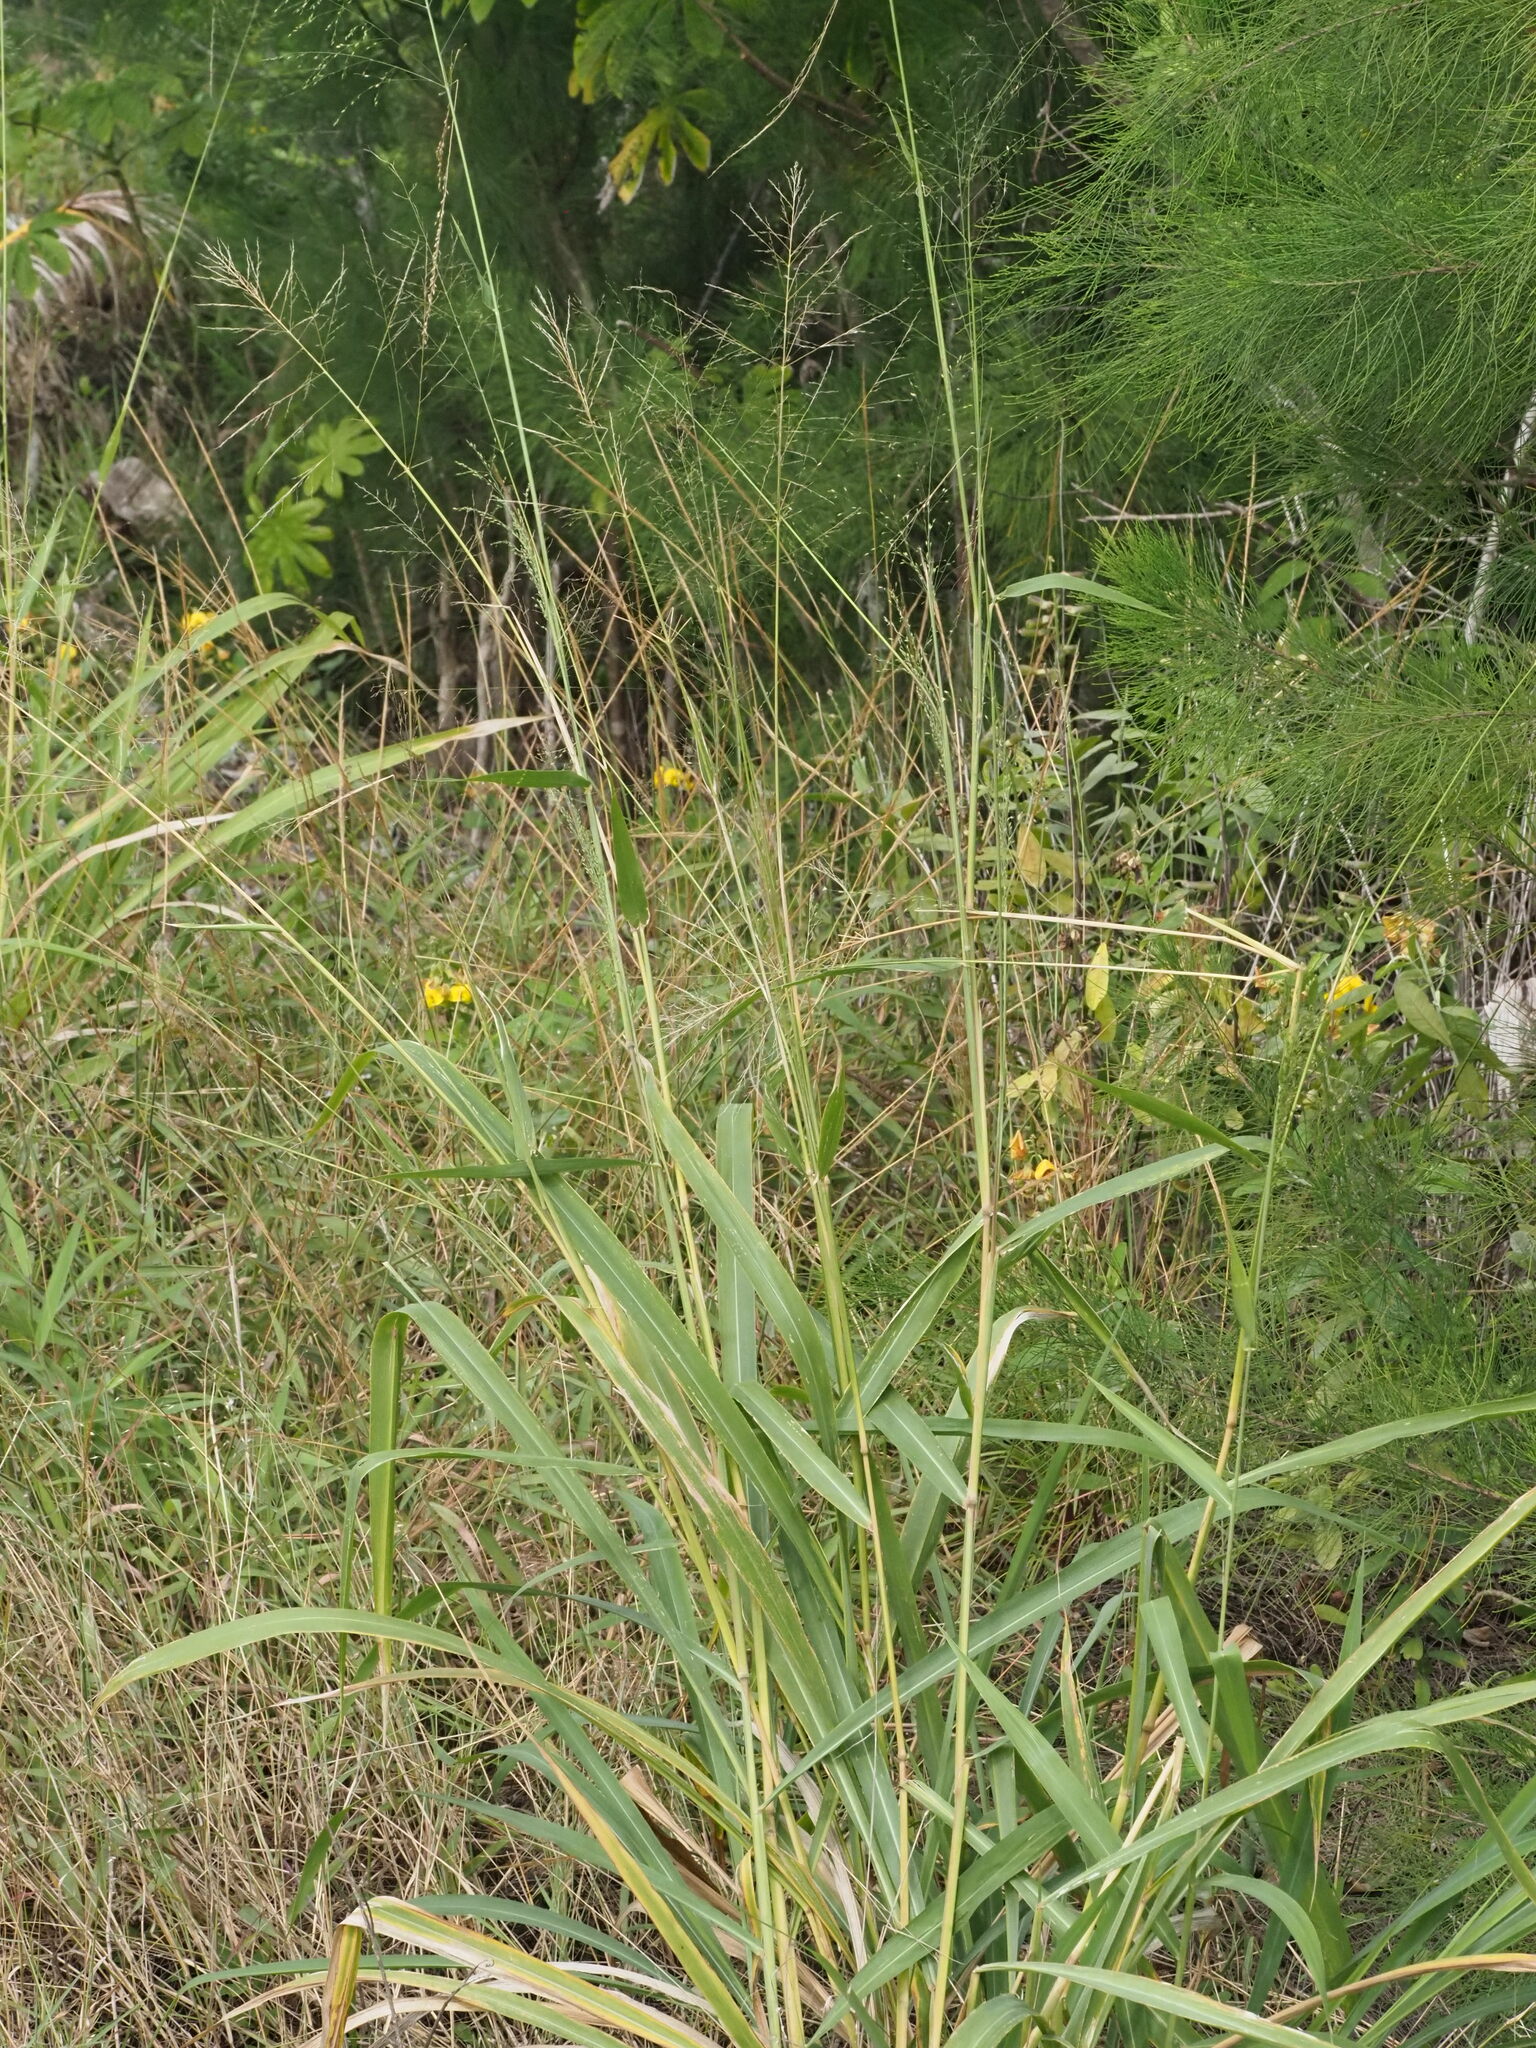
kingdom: Plantae
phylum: Tracheophyta
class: Liliopsida
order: Poales
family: Poaceae
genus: Megathyrsus
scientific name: Megathyrsus maximus
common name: Guineagrass
